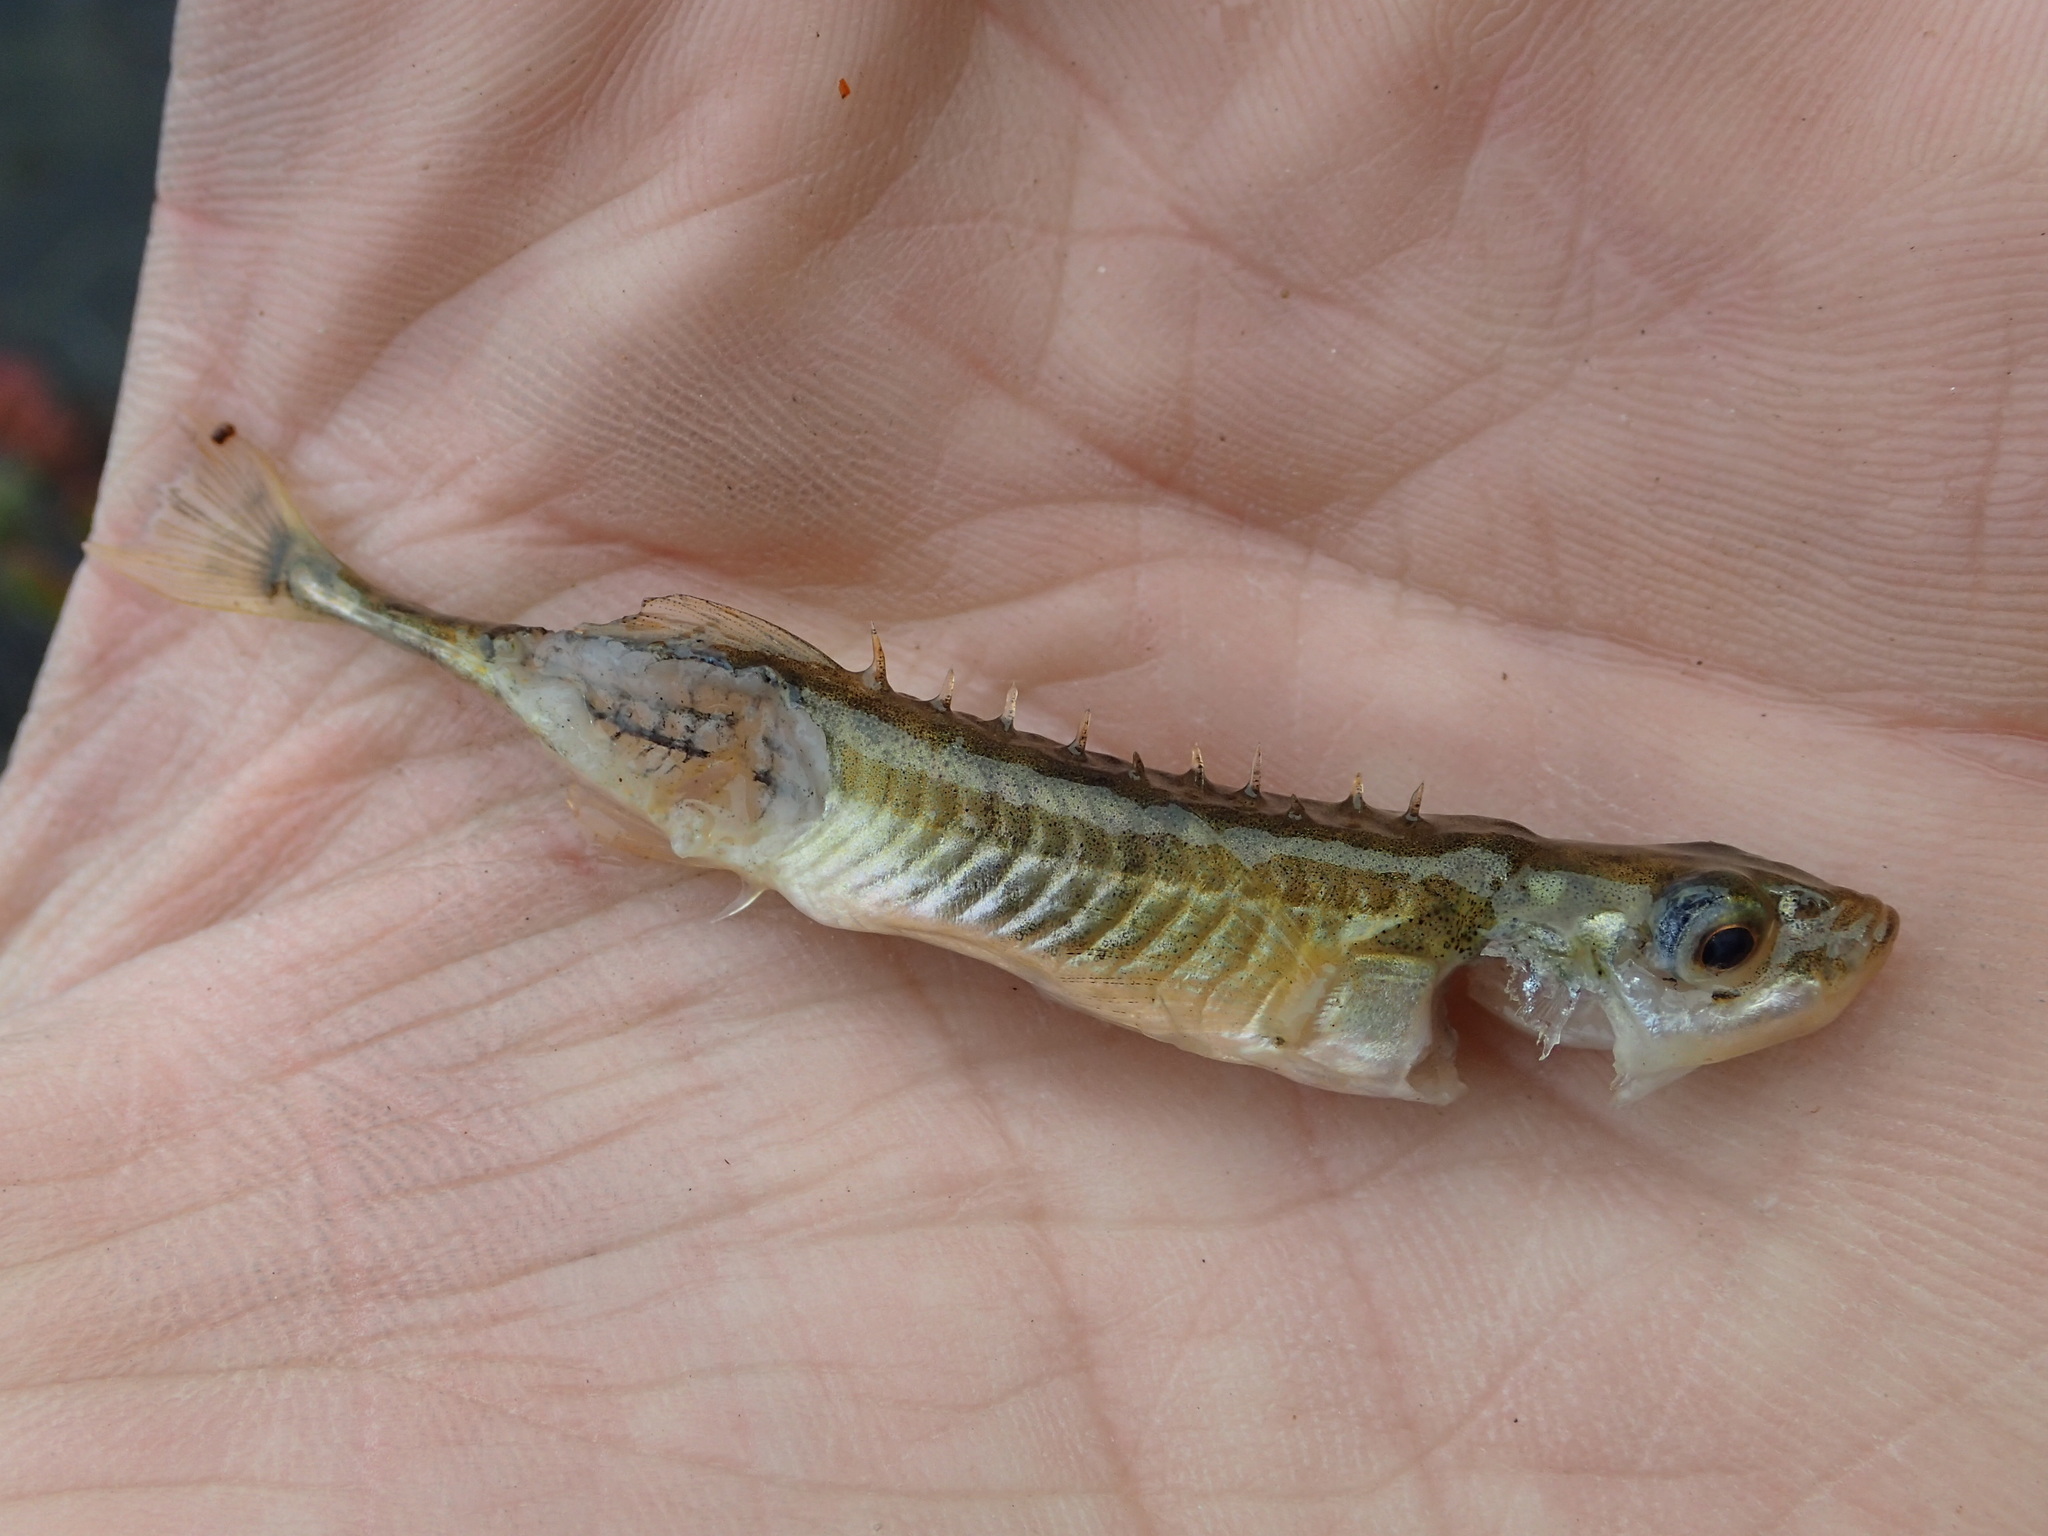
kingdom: Animalia
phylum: Chordata
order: Gasterosteiformes
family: Gasterosteidae
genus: Pungitius
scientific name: Pungitius pungitius
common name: Nine-spined stickleback
